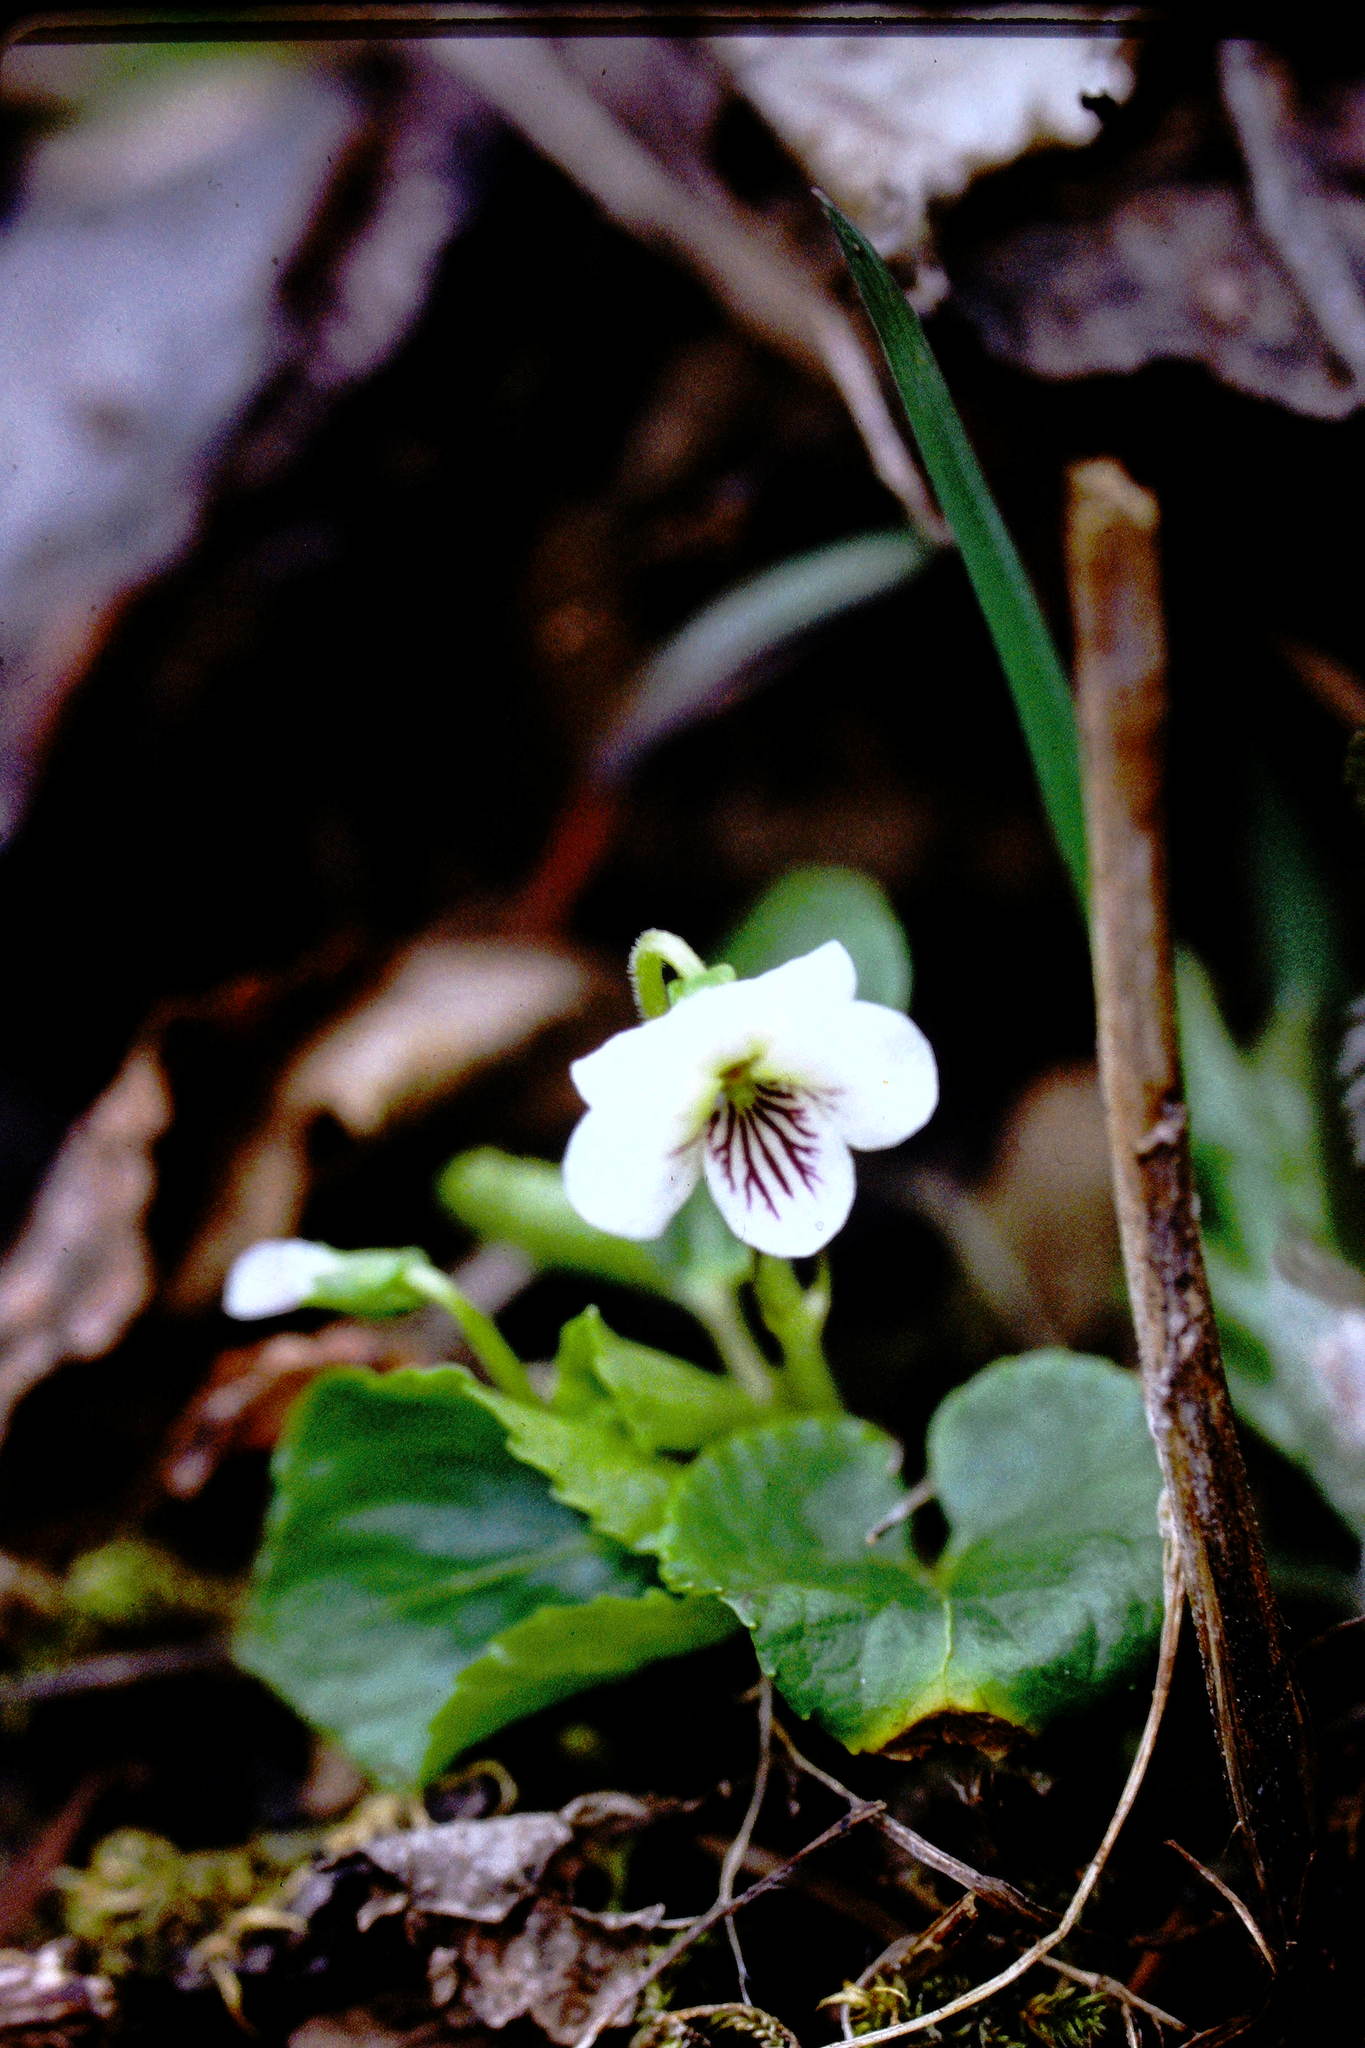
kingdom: Plantae
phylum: Tracheophyta
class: Magnoliopsida
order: Malpighiales
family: Violaceae
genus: Viola
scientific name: Viola blanda
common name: Sweet white violet
